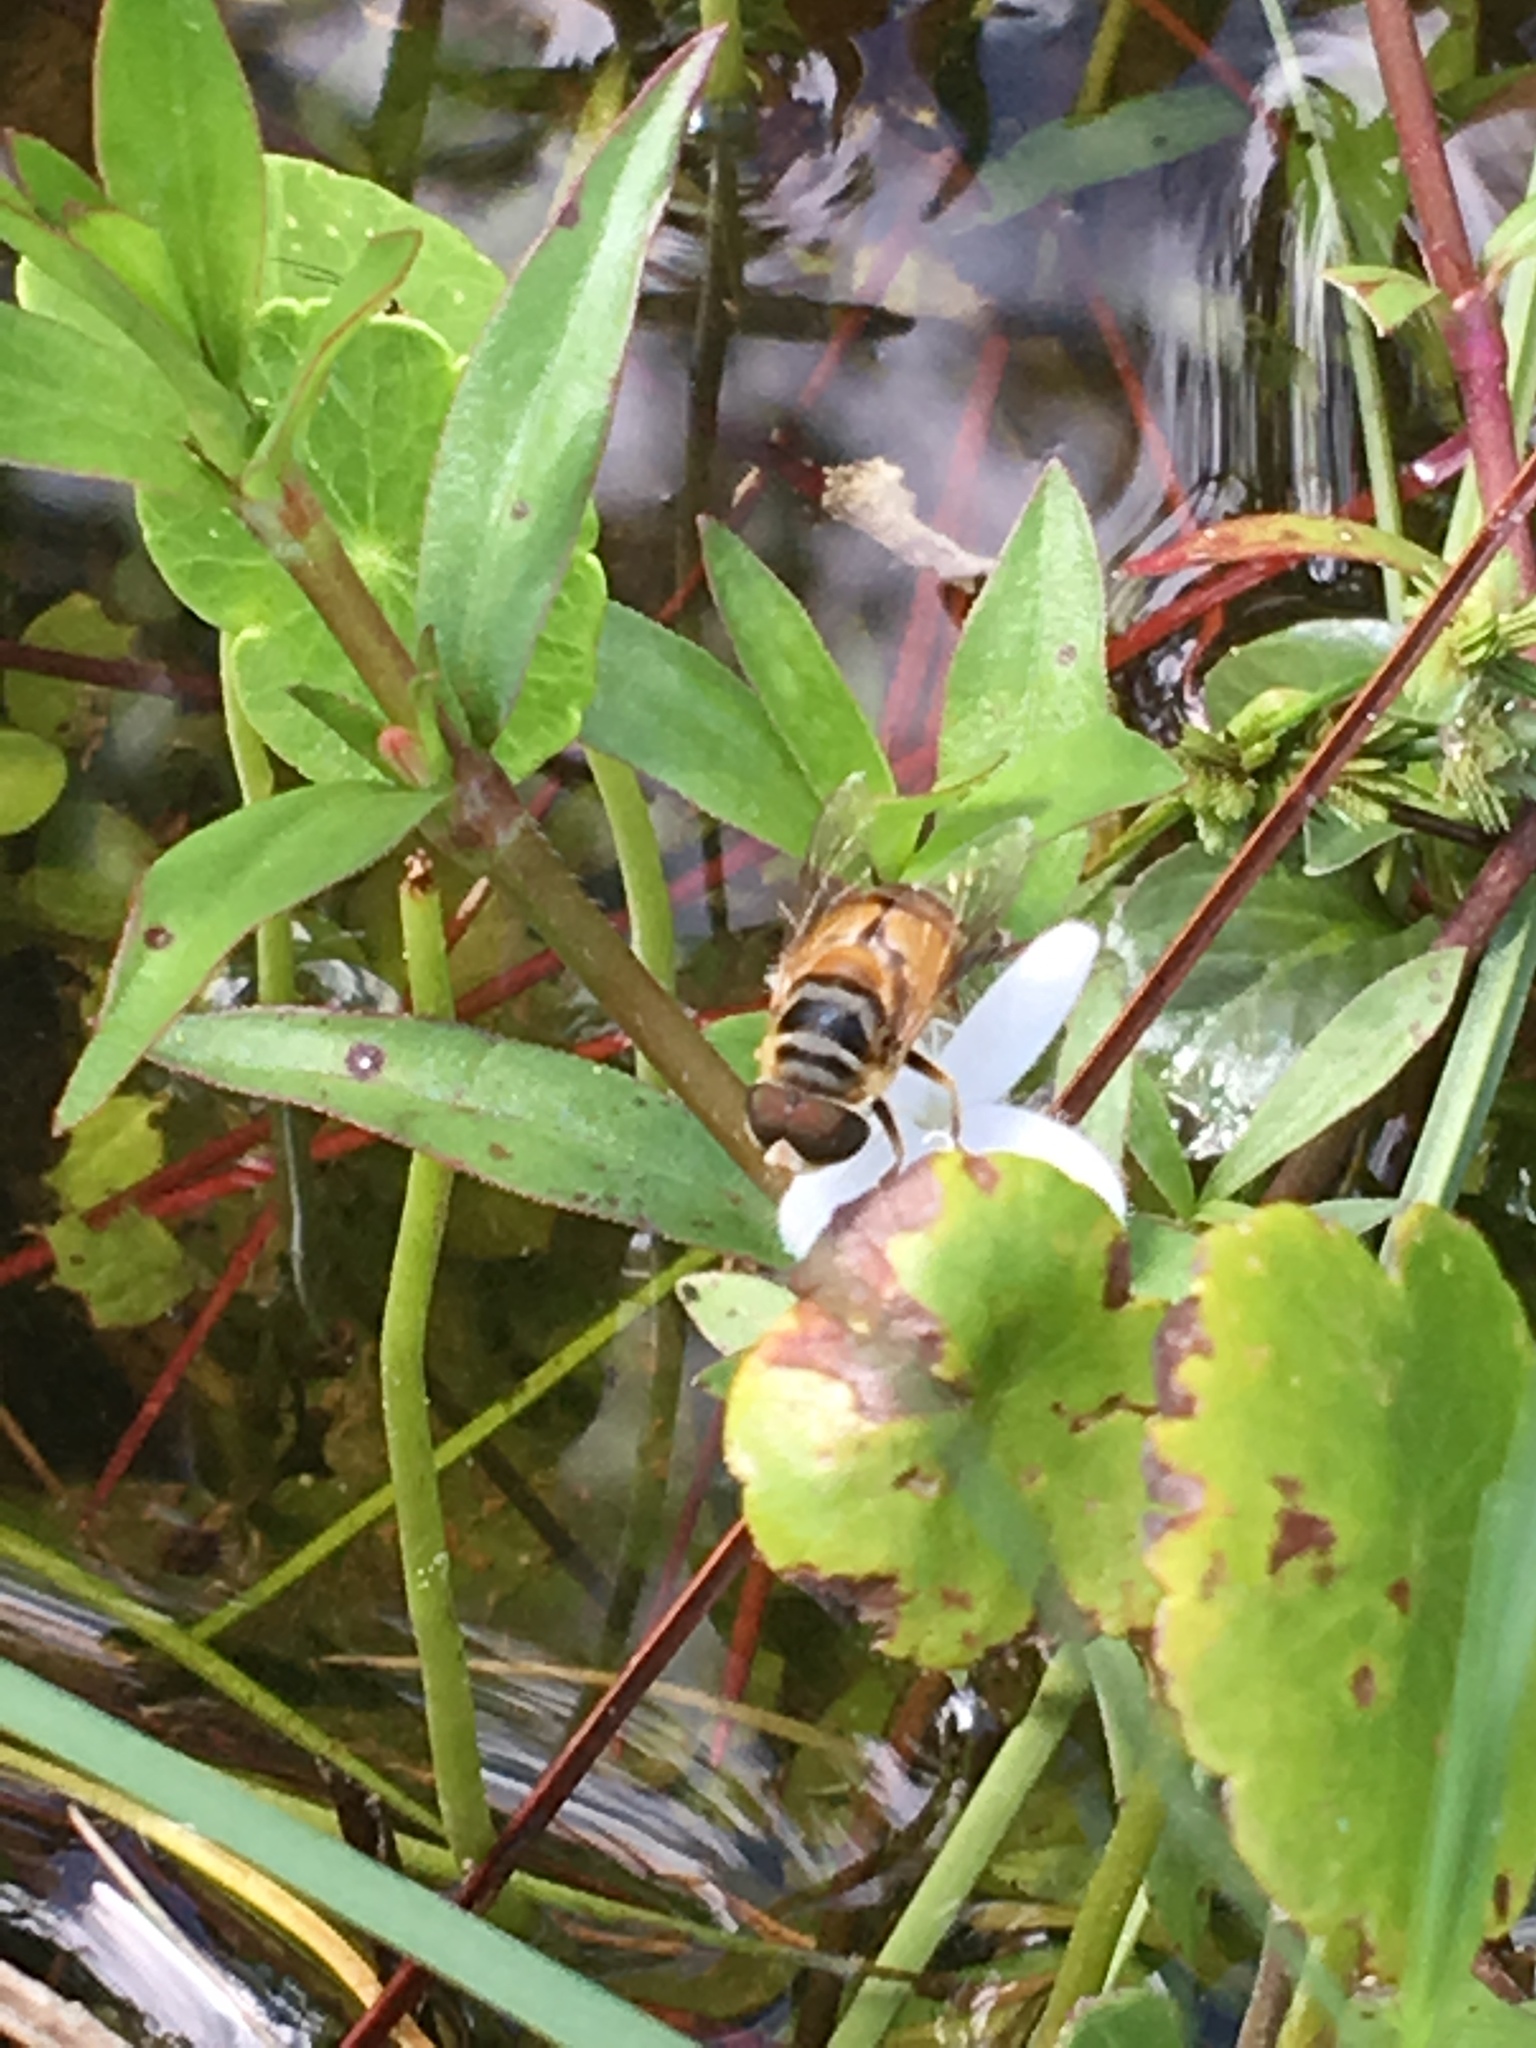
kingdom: Animalia
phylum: Arthropoda
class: Insecta
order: Diptera
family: Syrphidae
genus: Palpada
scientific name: Palpada vinetorum
